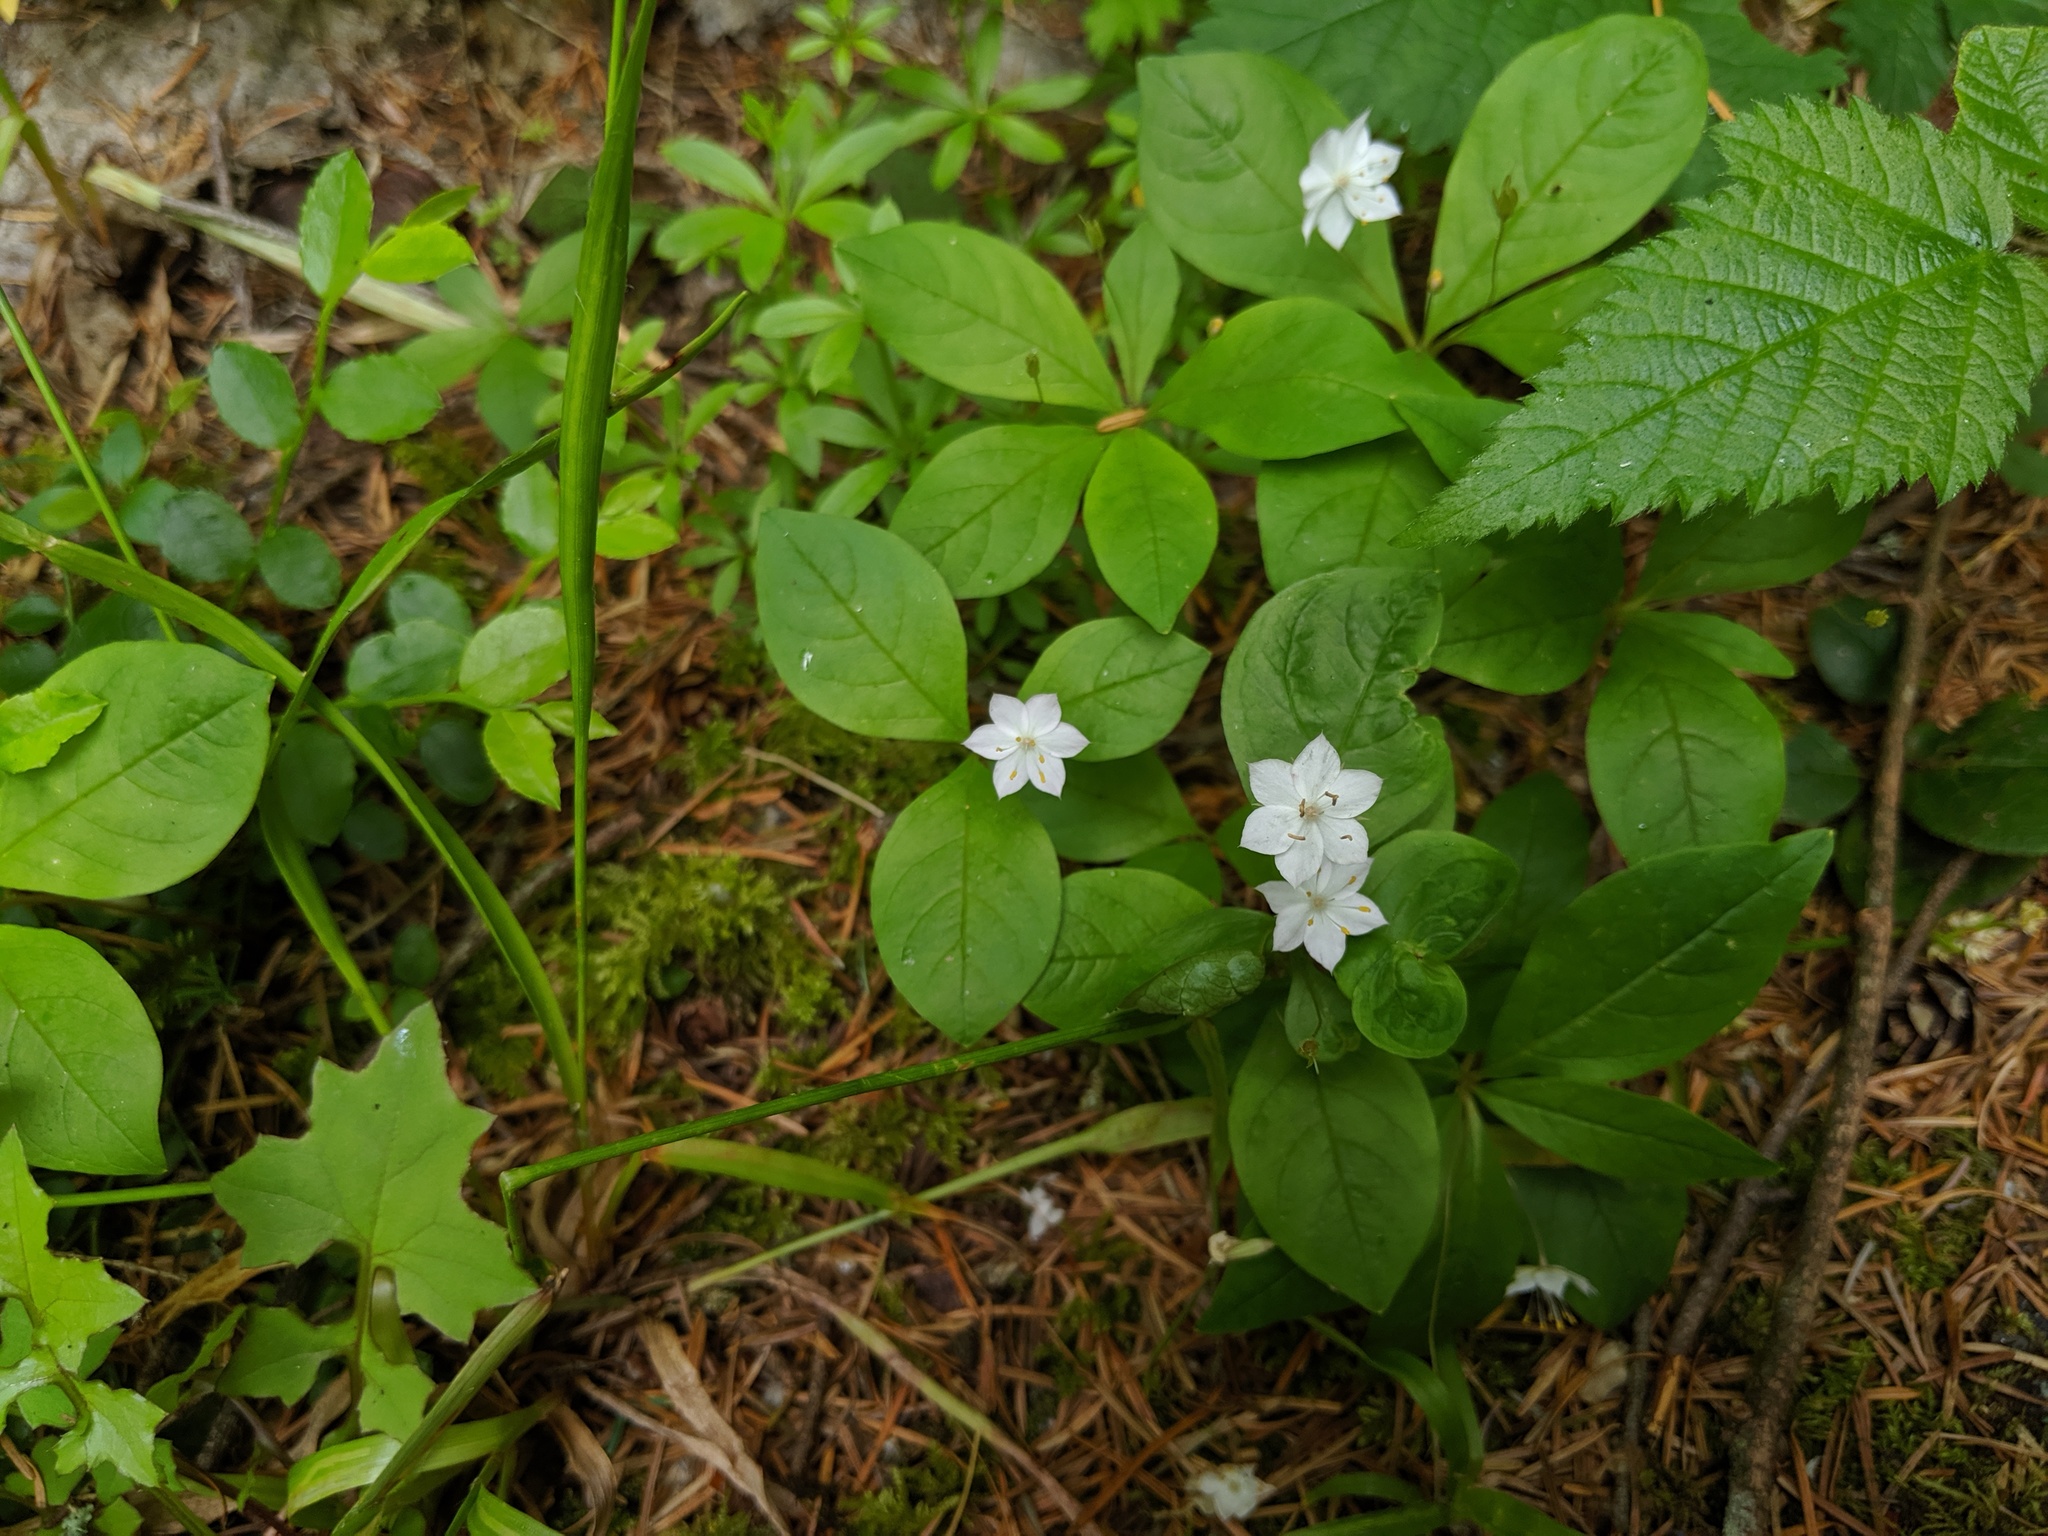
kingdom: Plantae
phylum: Tracheophyta
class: Magnoliopsida
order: Ericales
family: Primulaceae
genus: Lysimachia
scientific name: Lysimachia latifolia
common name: Pacific starflower
